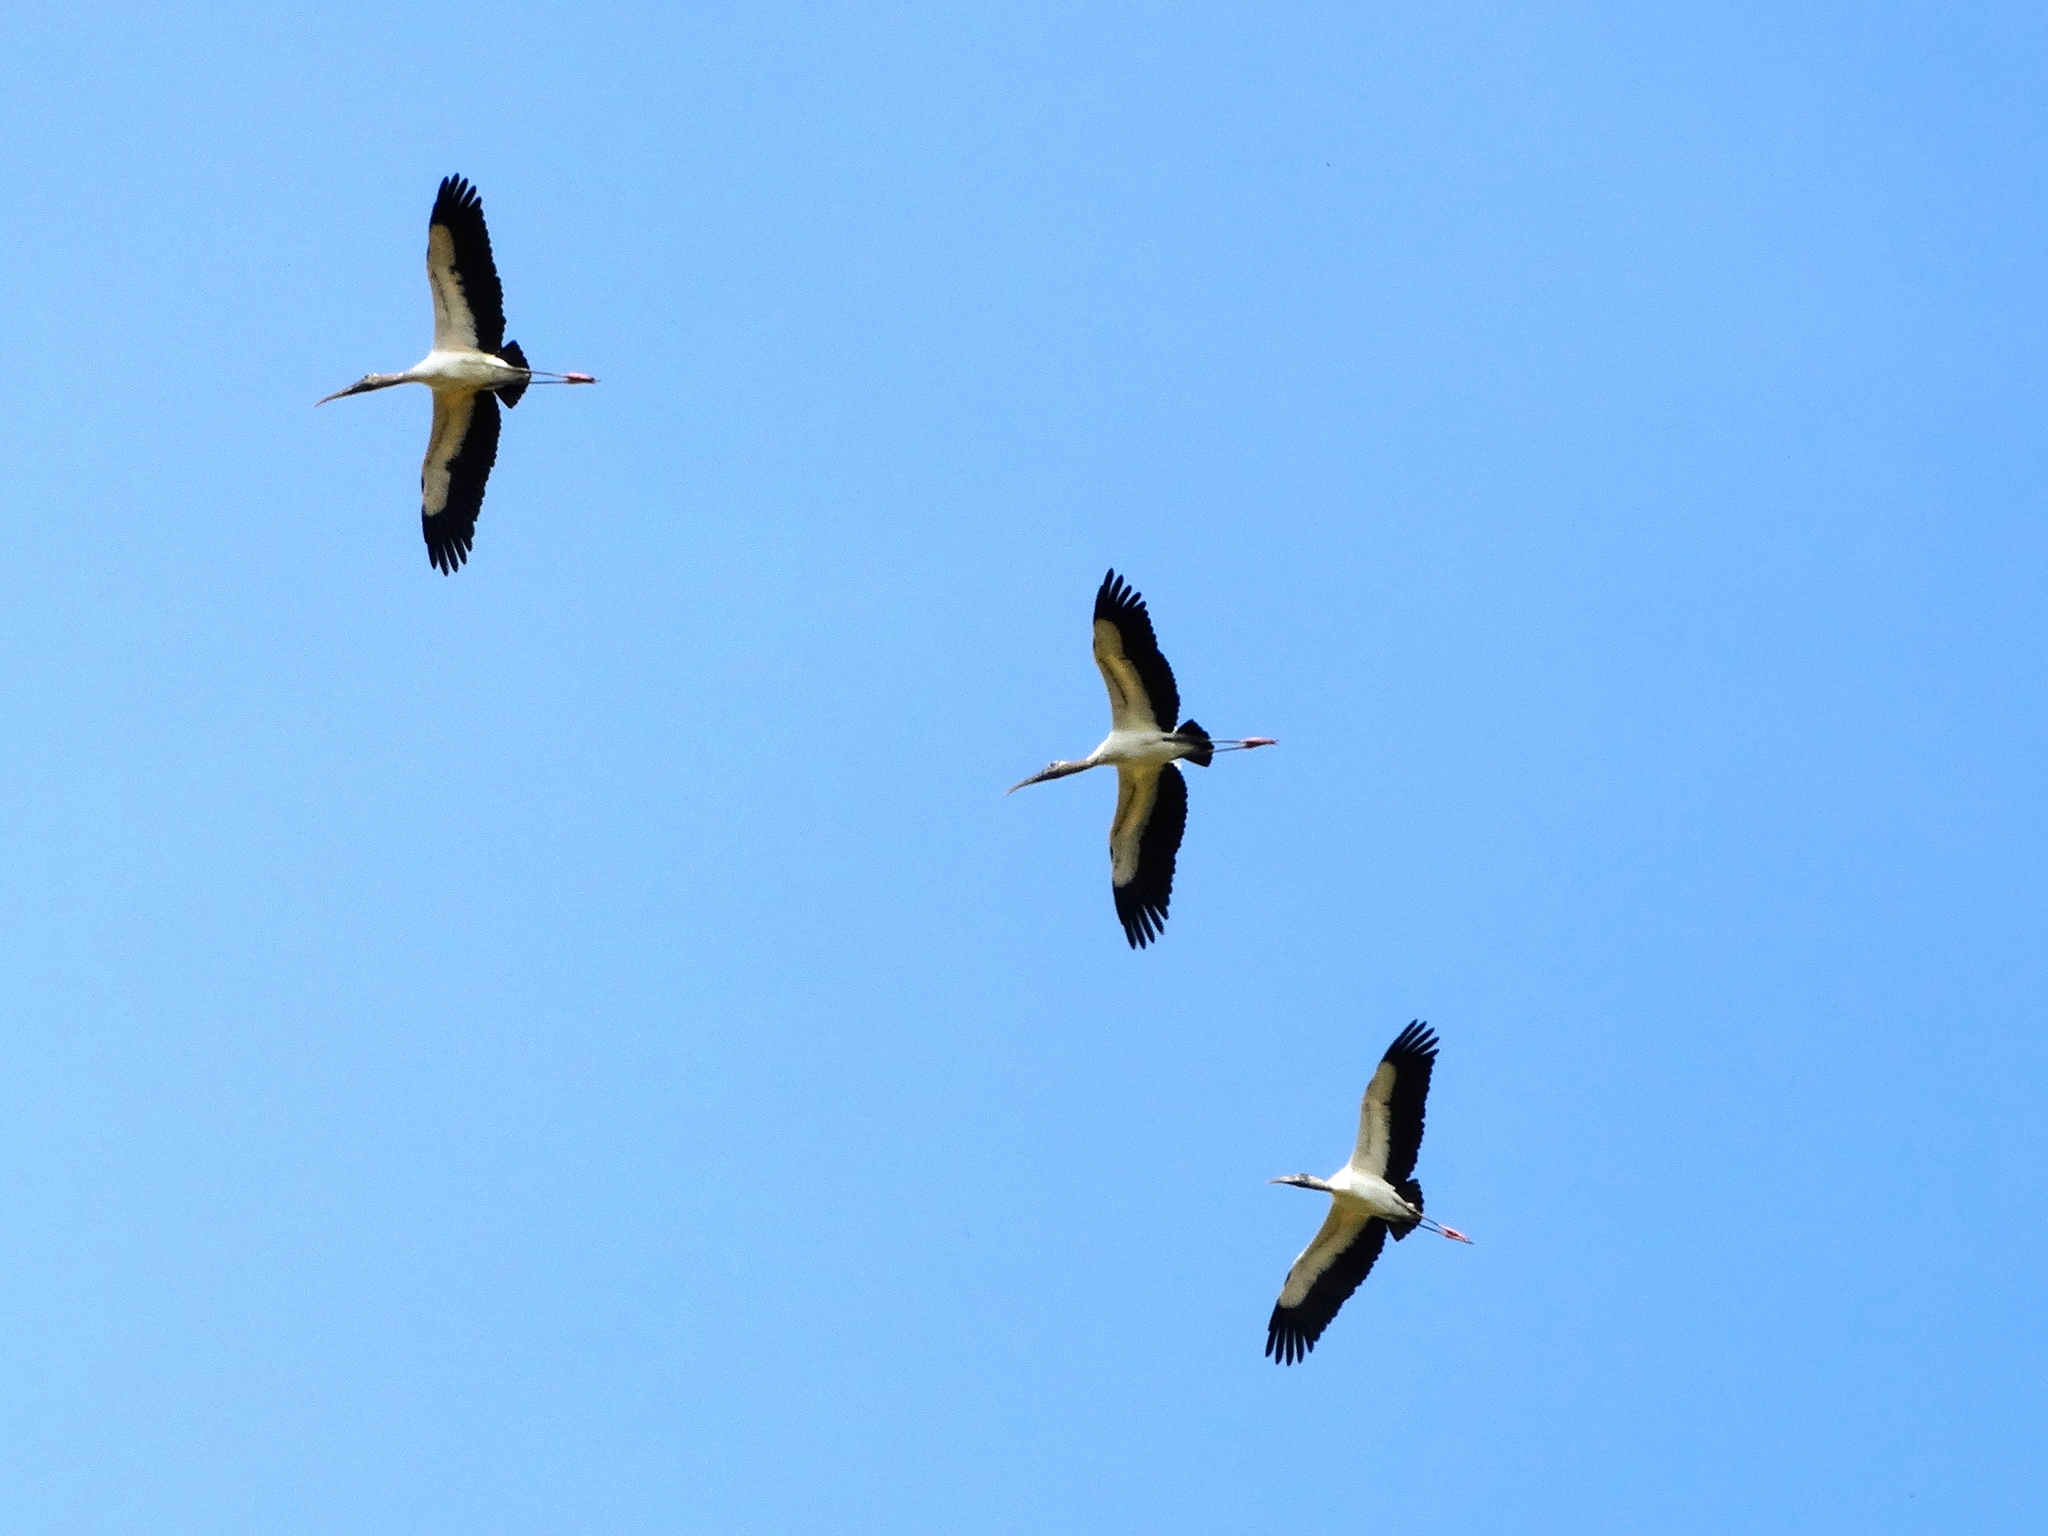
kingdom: Animalia
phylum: Chordata
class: Aves
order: Ciconiiformes
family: Ciconiidae
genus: Mycteria
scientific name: Mycteria americana
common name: Wood stork
